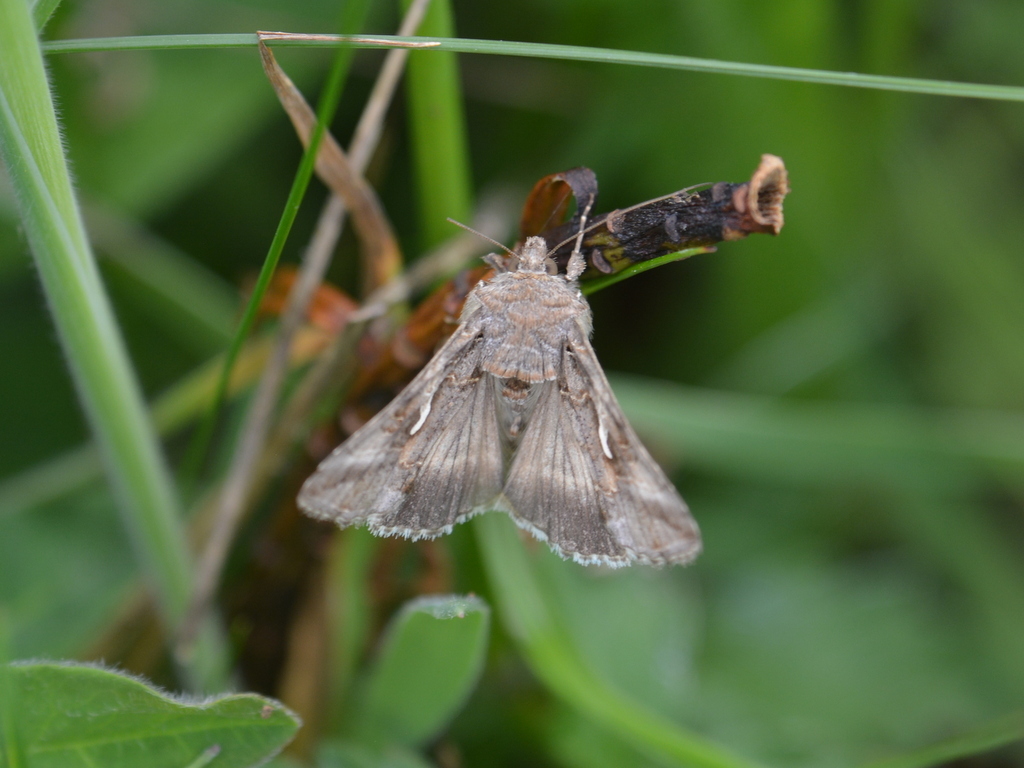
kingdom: Animalia
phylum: Arthropoda
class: Insecta
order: Lepidoptera
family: Noctuidae
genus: Autographa
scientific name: Autographa gamma
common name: Silver y
